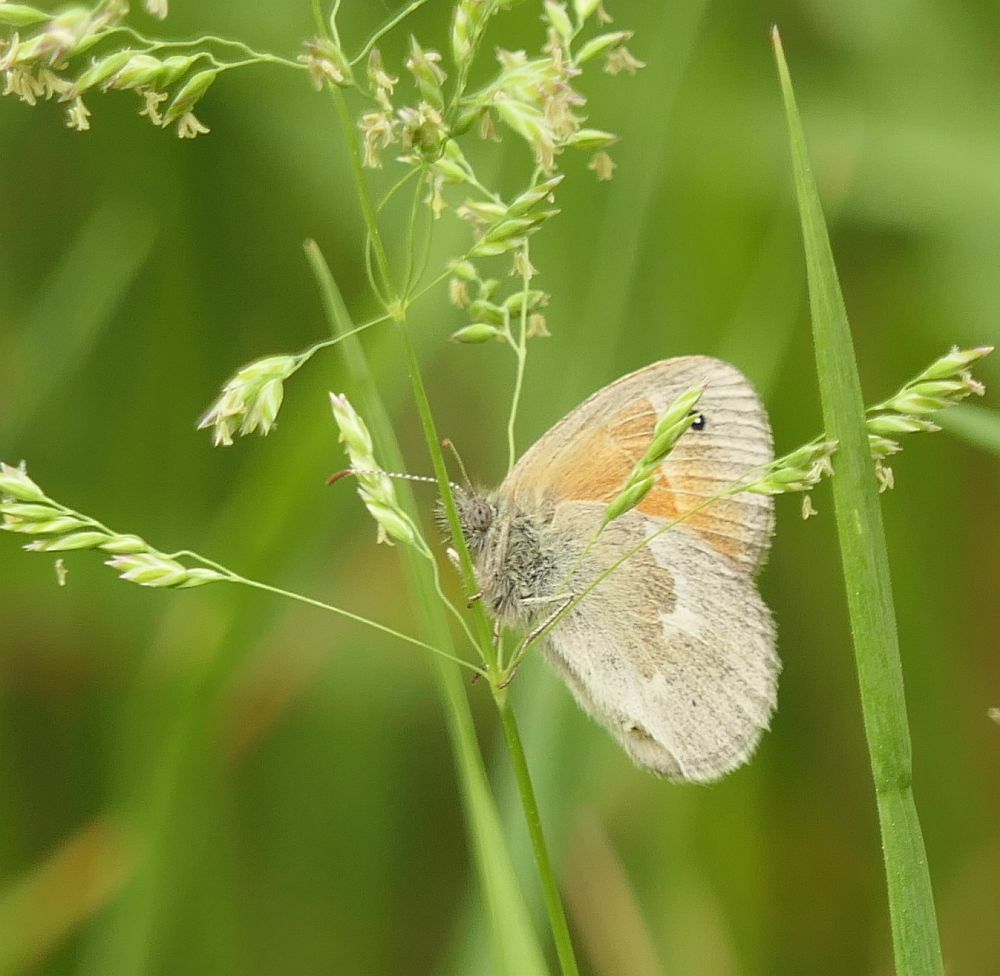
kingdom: Animalia
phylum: Arthropoda
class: Insecta
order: Lepidoptera
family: Nymphalidae
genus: Coenonympha
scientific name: Coenonympha california
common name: Common ringlet
